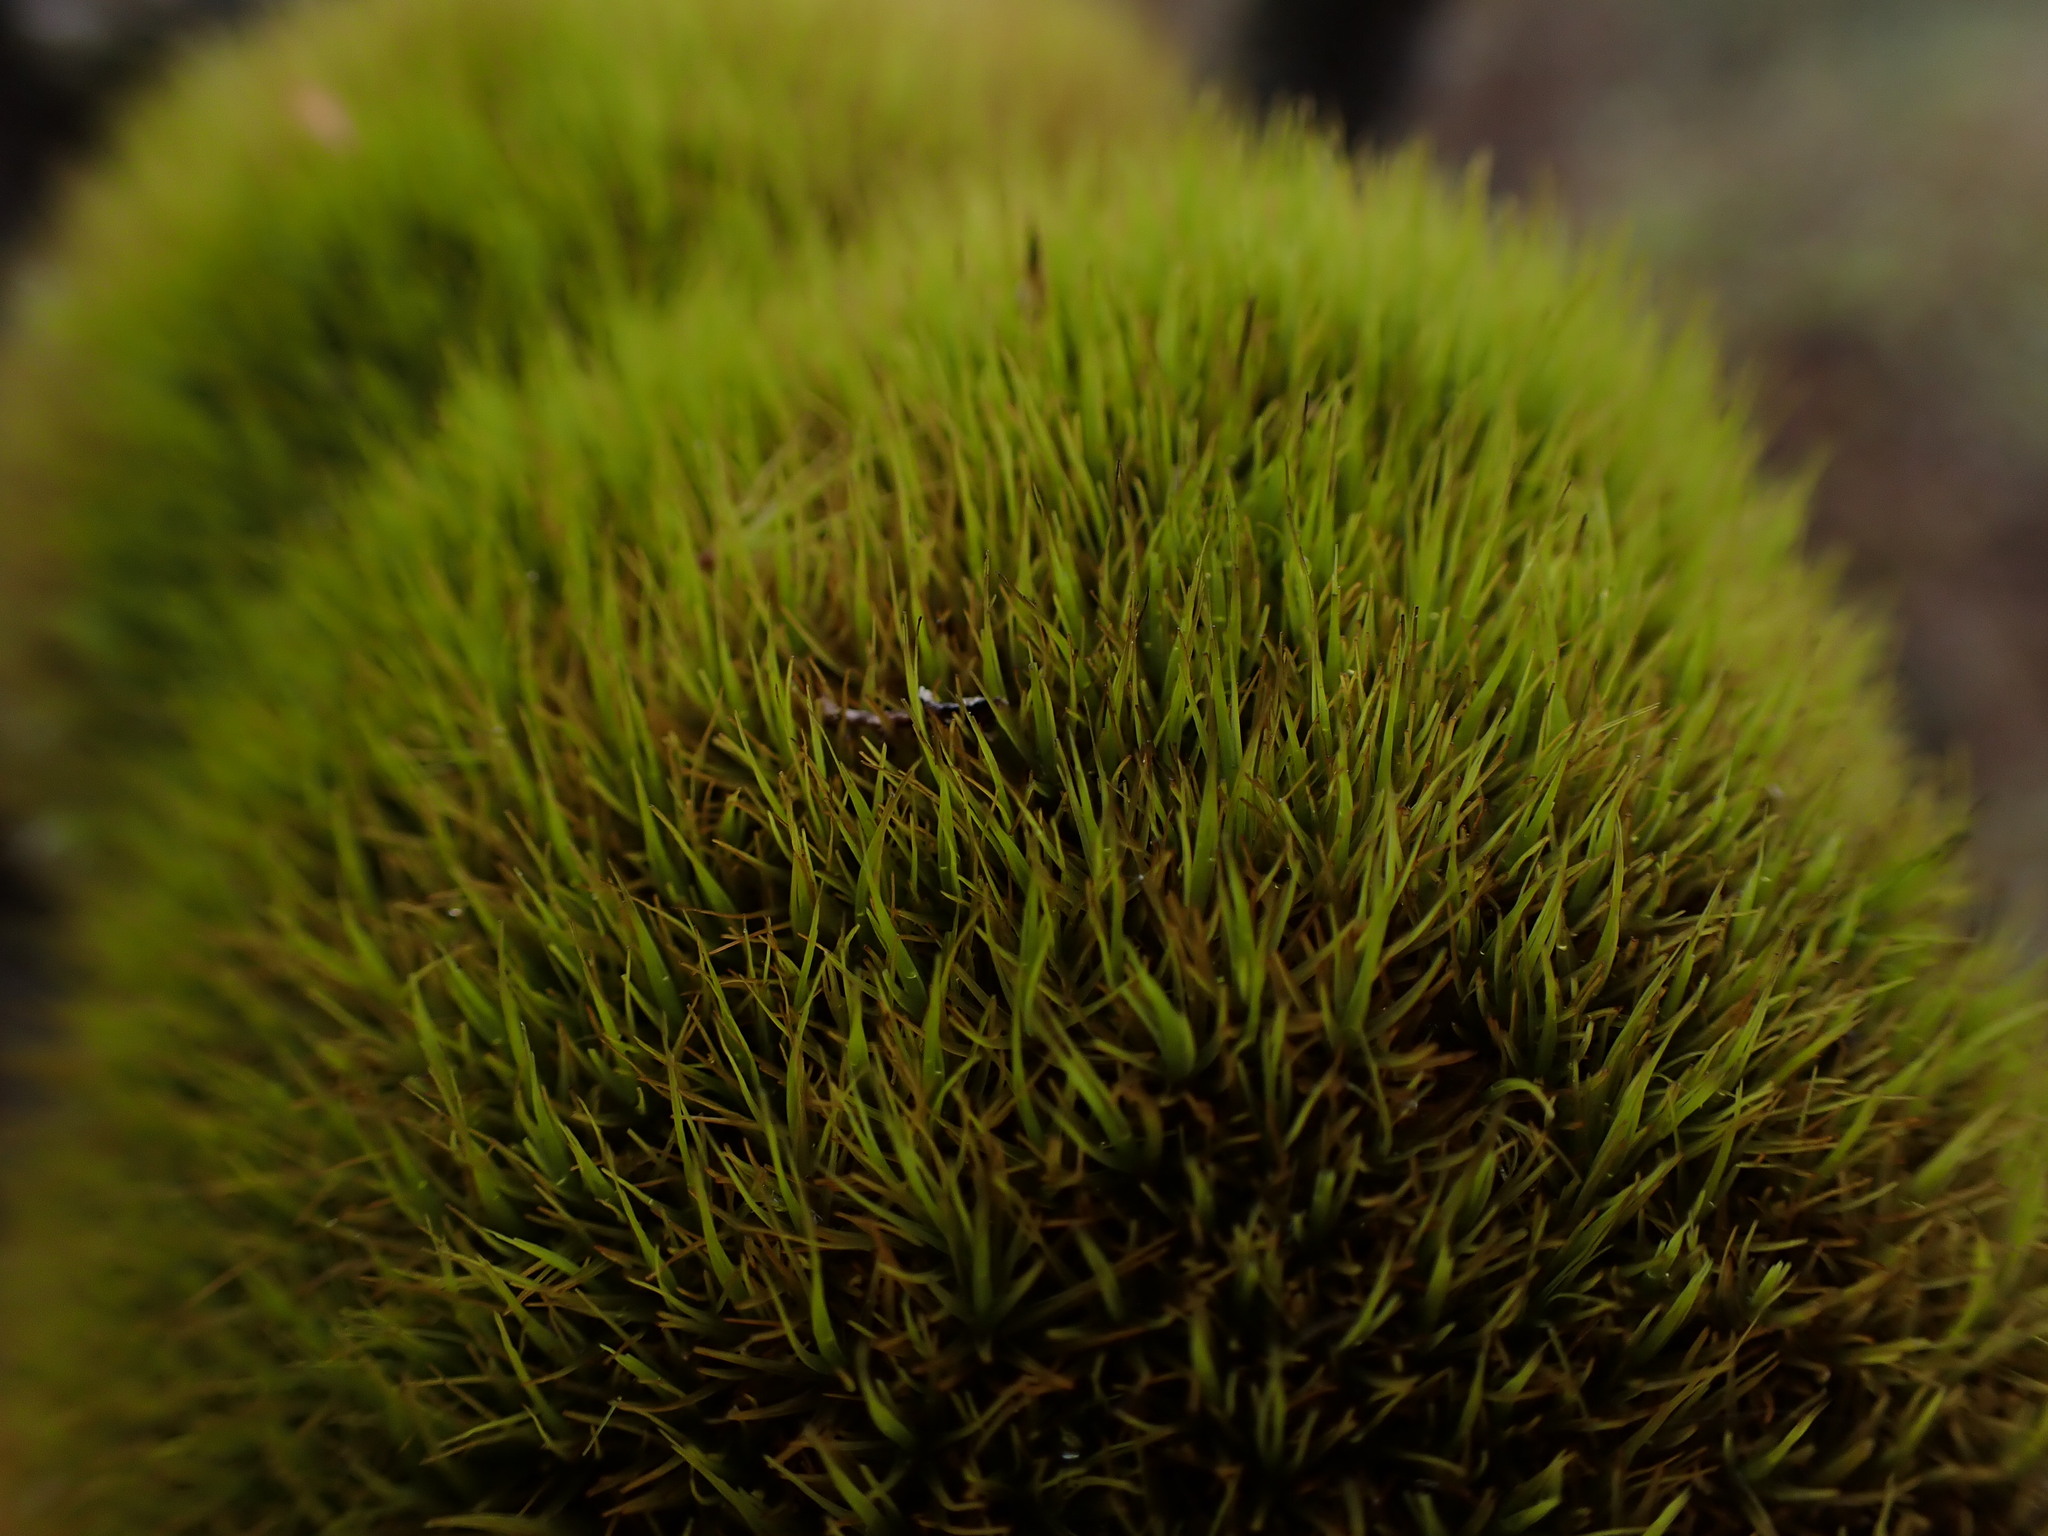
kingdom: Plantae
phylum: Bryophyta
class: Bryopsida
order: Dicranales
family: Dicranaceae
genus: Orthodicranum
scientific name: Orthodicranum tauricum
